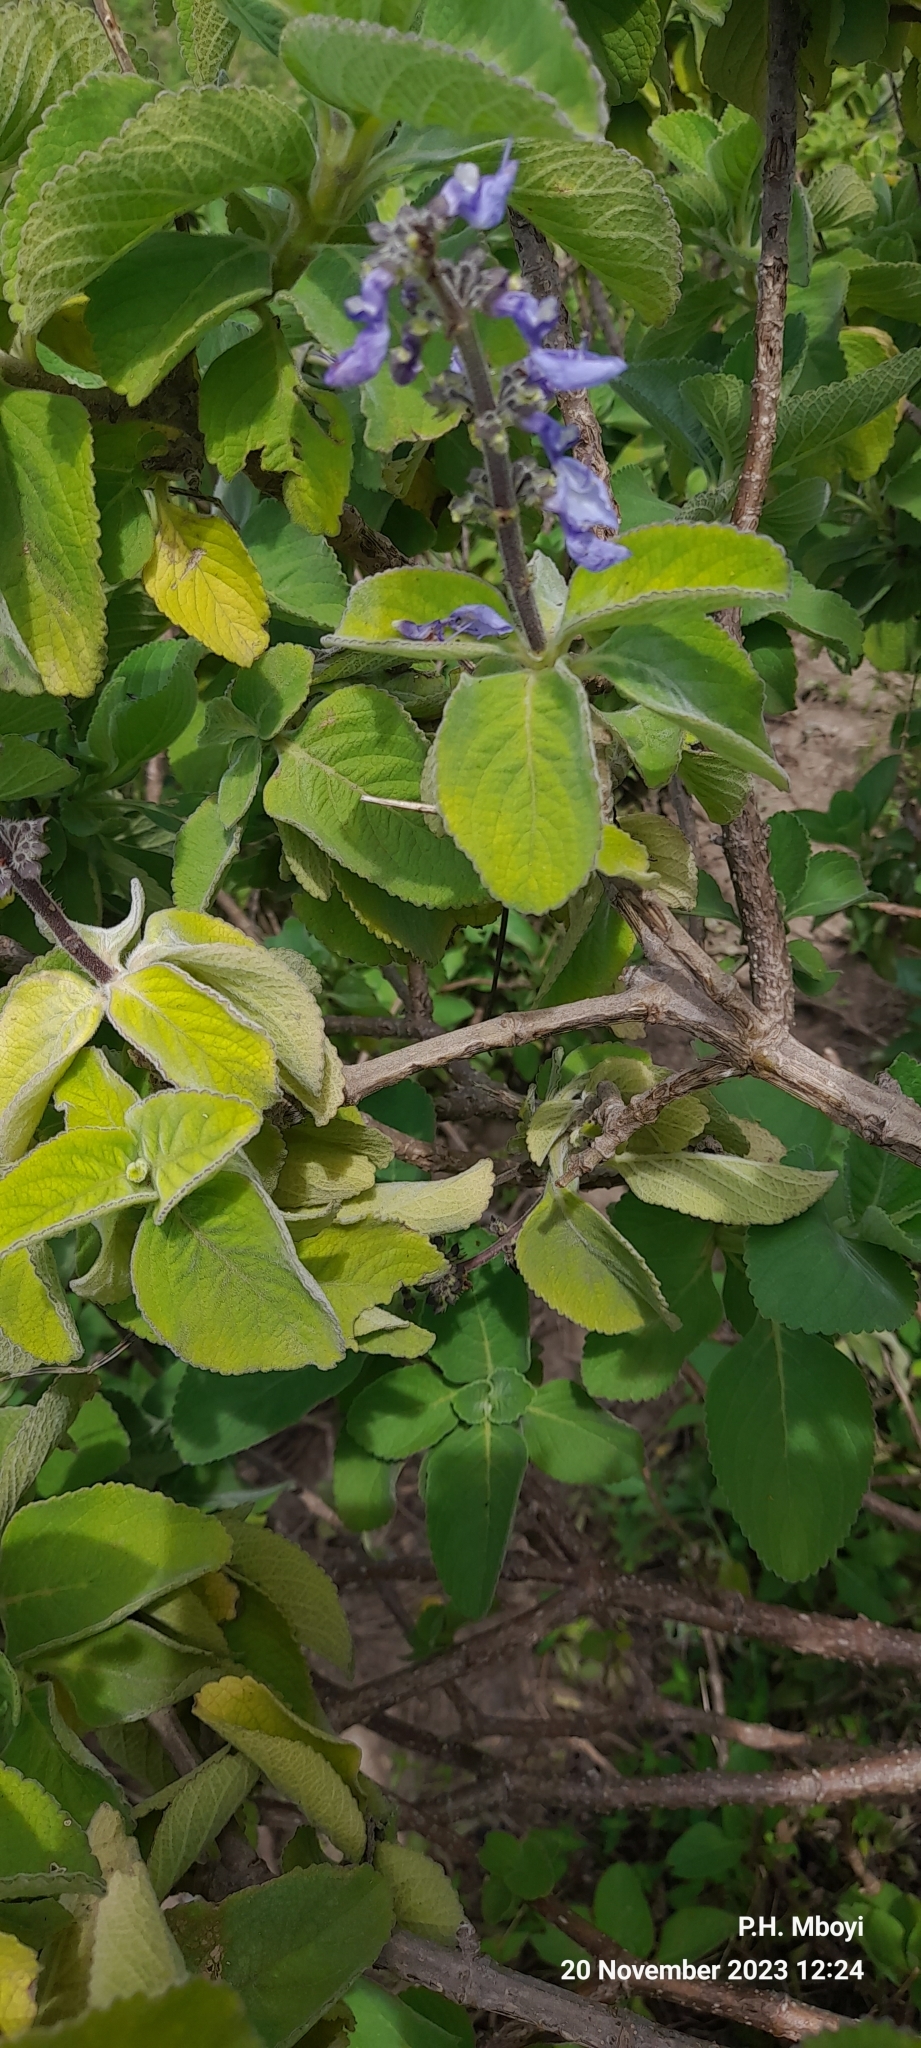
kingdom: Plantae
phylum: Tracheophyta
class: Magnoliopsida
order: Lamiales
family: Lamiaceae
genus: Coleus
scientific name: Coleus barbatus
